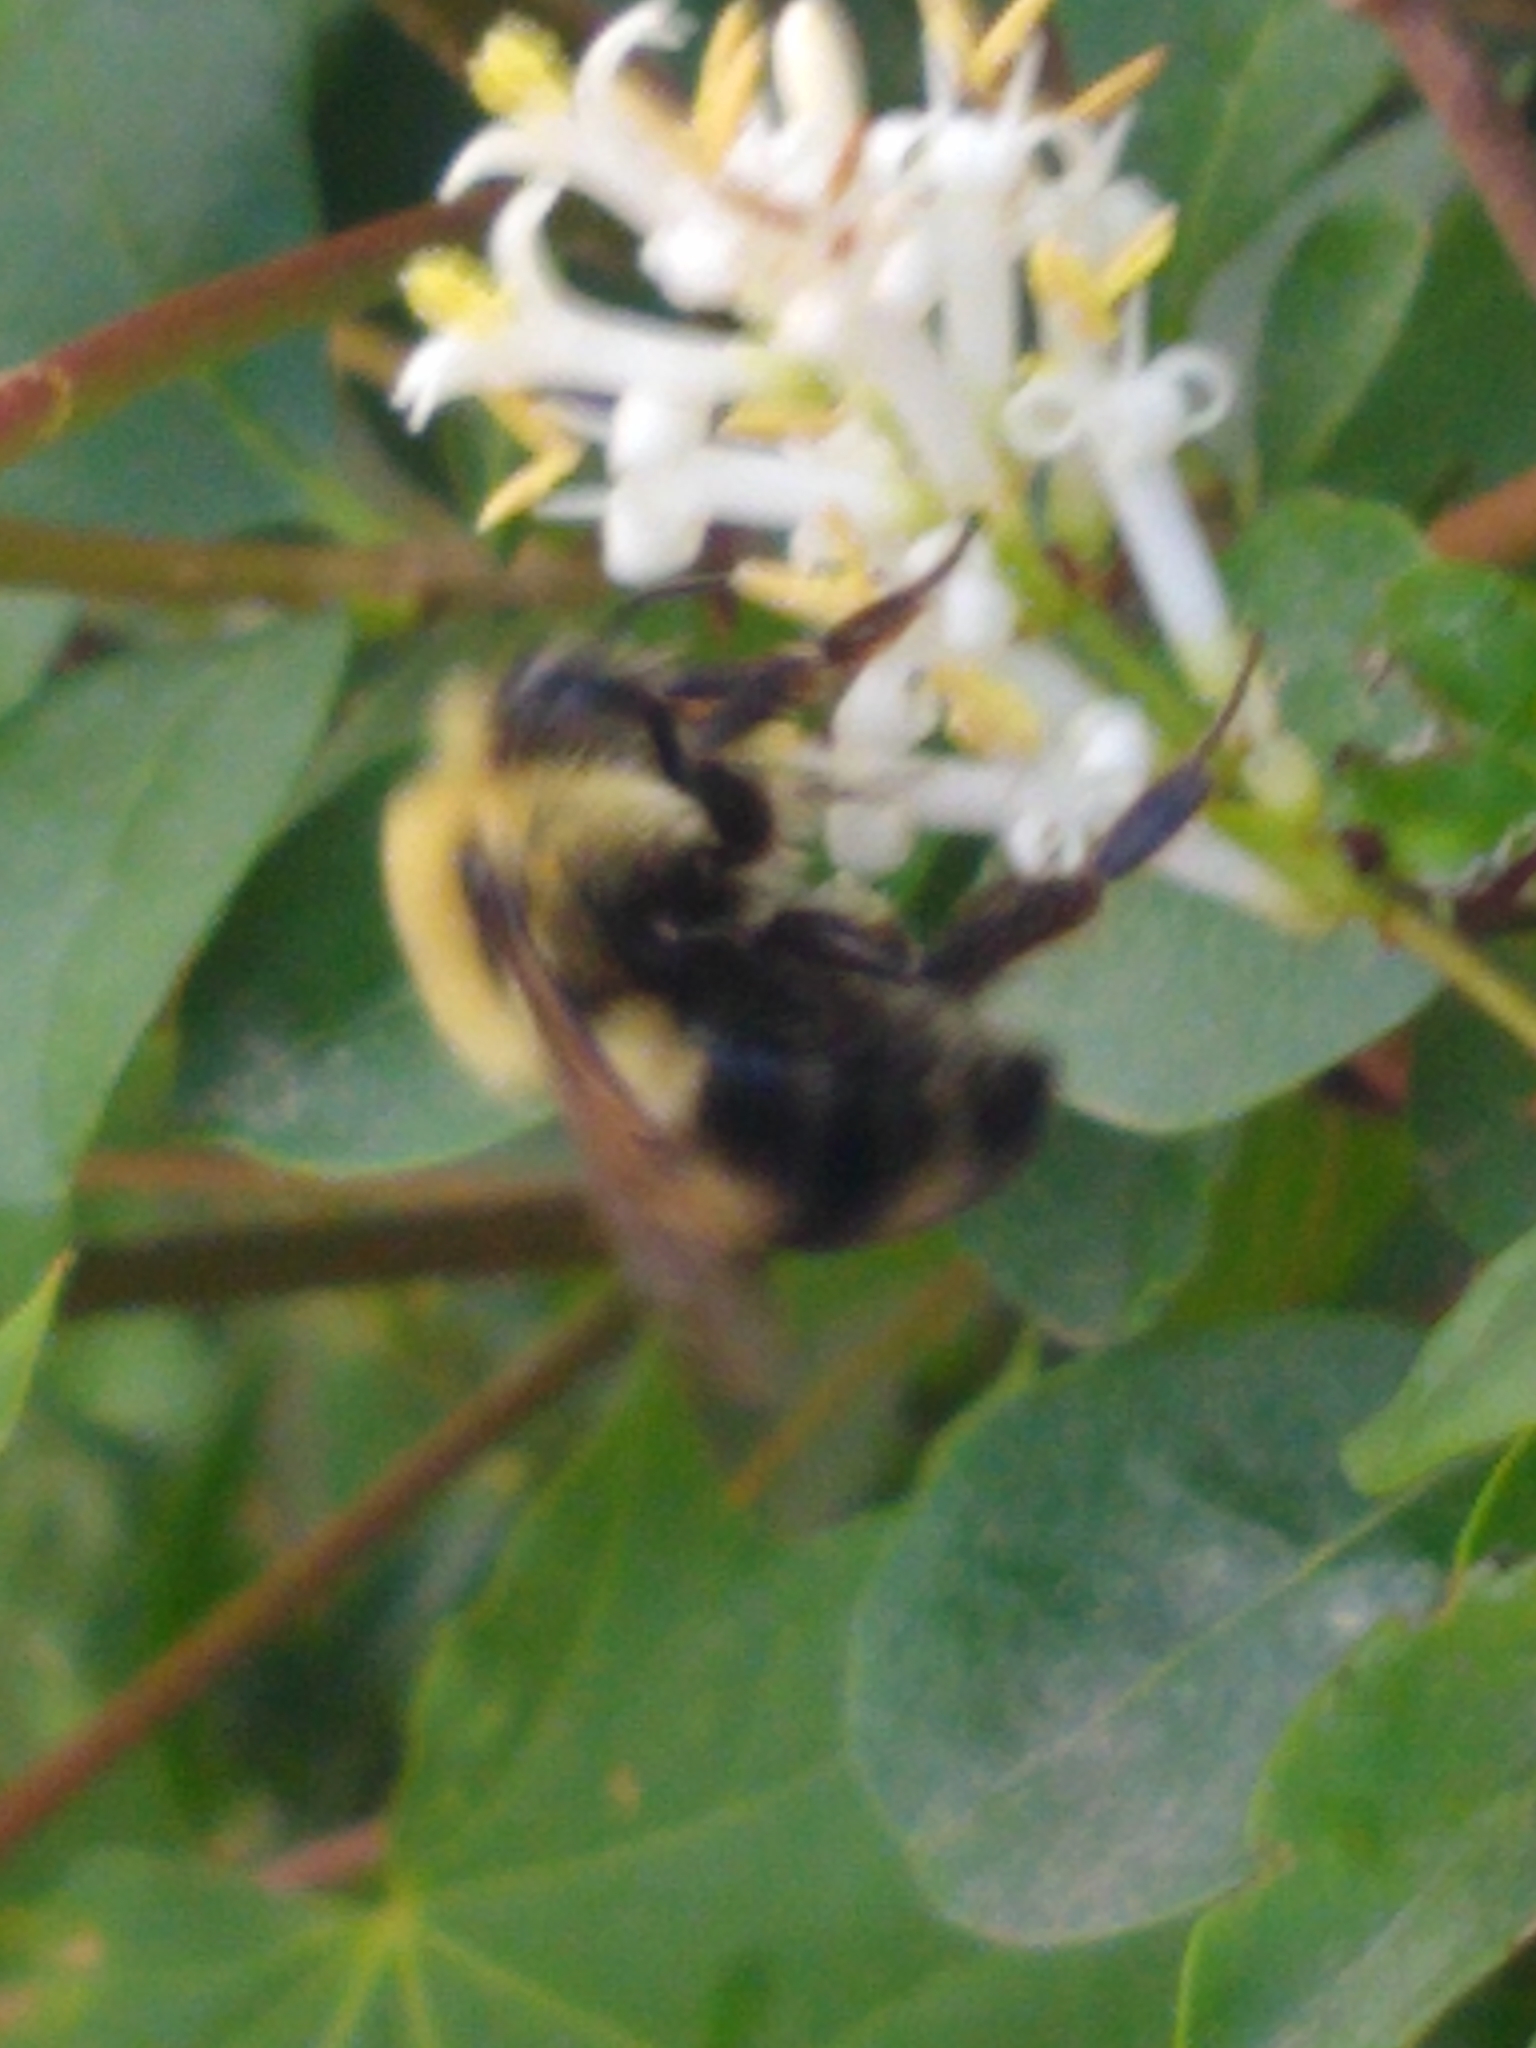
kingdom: Animalia
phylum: Arthropoda
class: Insecta
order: Hymenoptera
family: Apidae
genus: Bombus
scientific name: Bombus bimaculatus
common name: Two-spotted bumble bee
